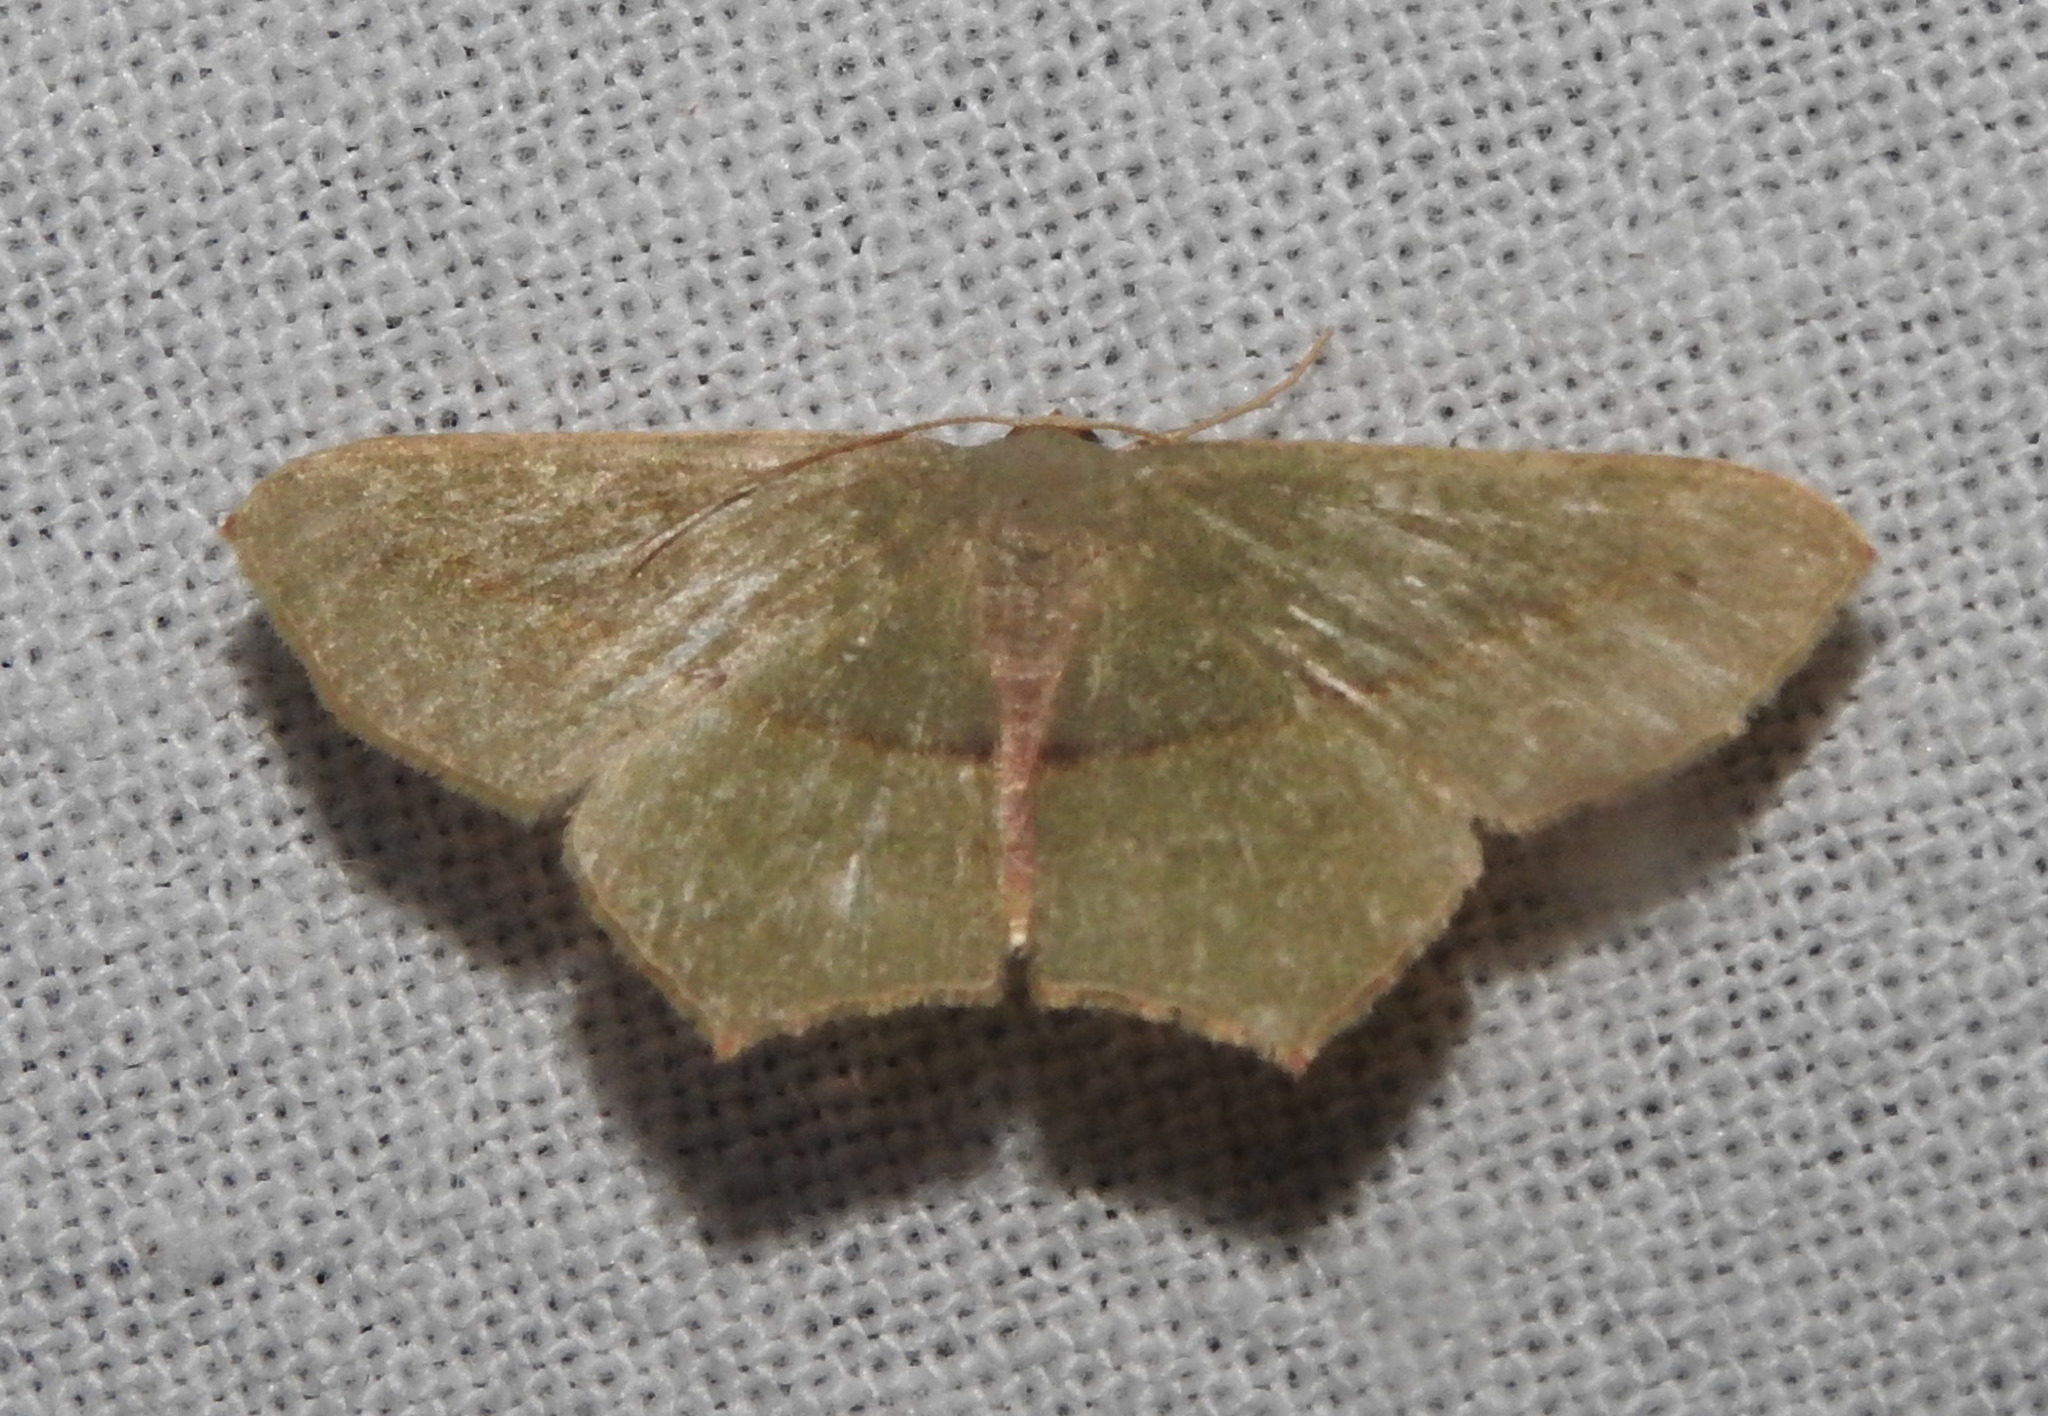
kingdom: Animalia
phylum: Arthropoda
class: Insecta
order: Lepidoptera
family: Geometridae
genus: Traminda
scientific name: Traminda mundissima
